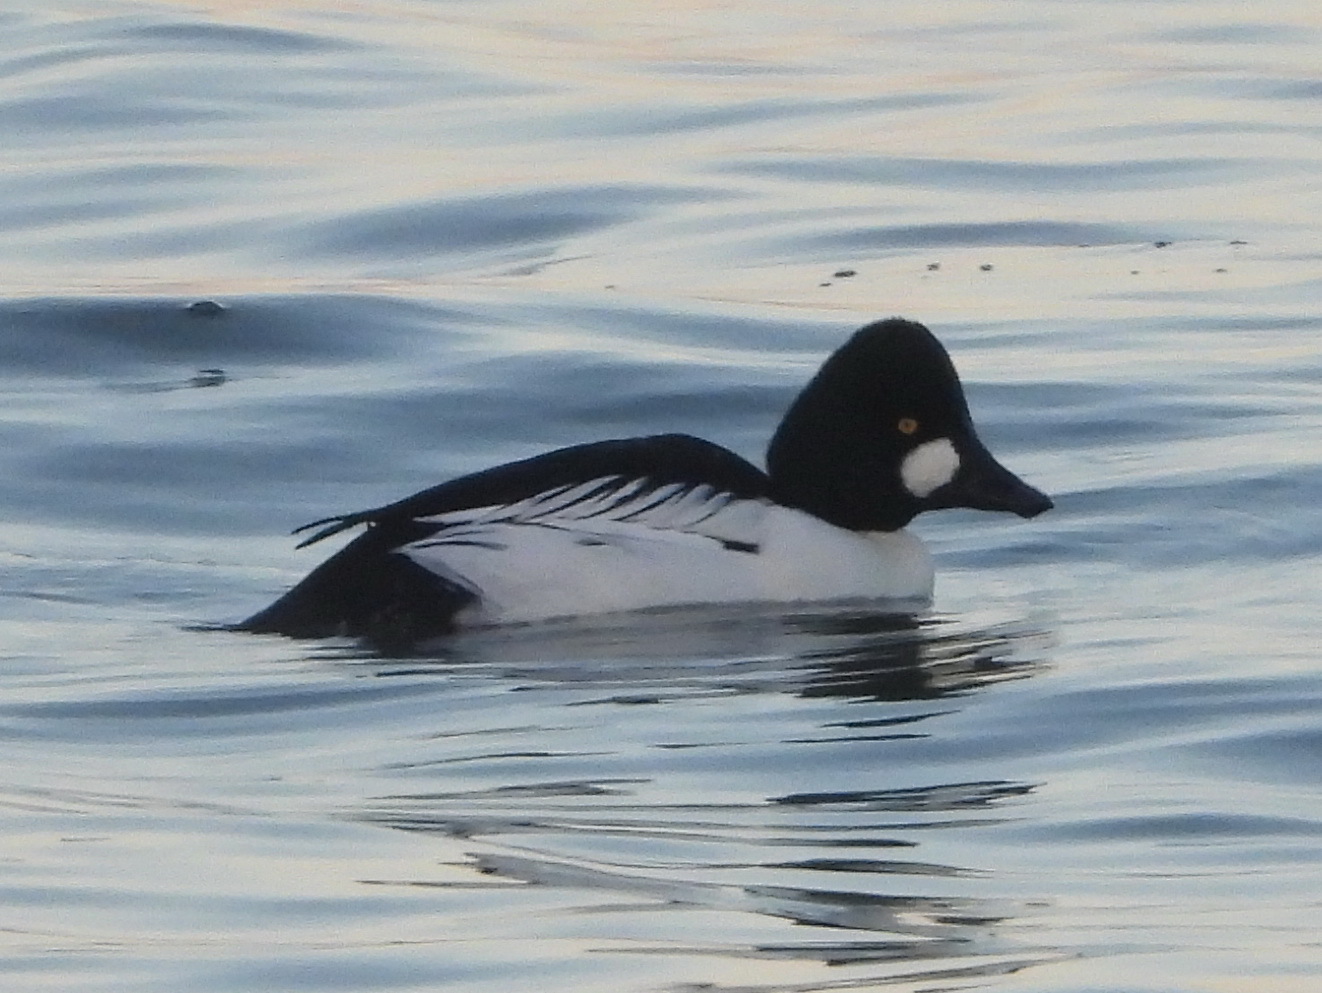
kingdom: Animalia
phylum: Chordata
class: Aves
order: Anseriformes
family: Anatidae
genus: Bucephala
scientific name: Bucephala clangula
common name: Common goldeneye
